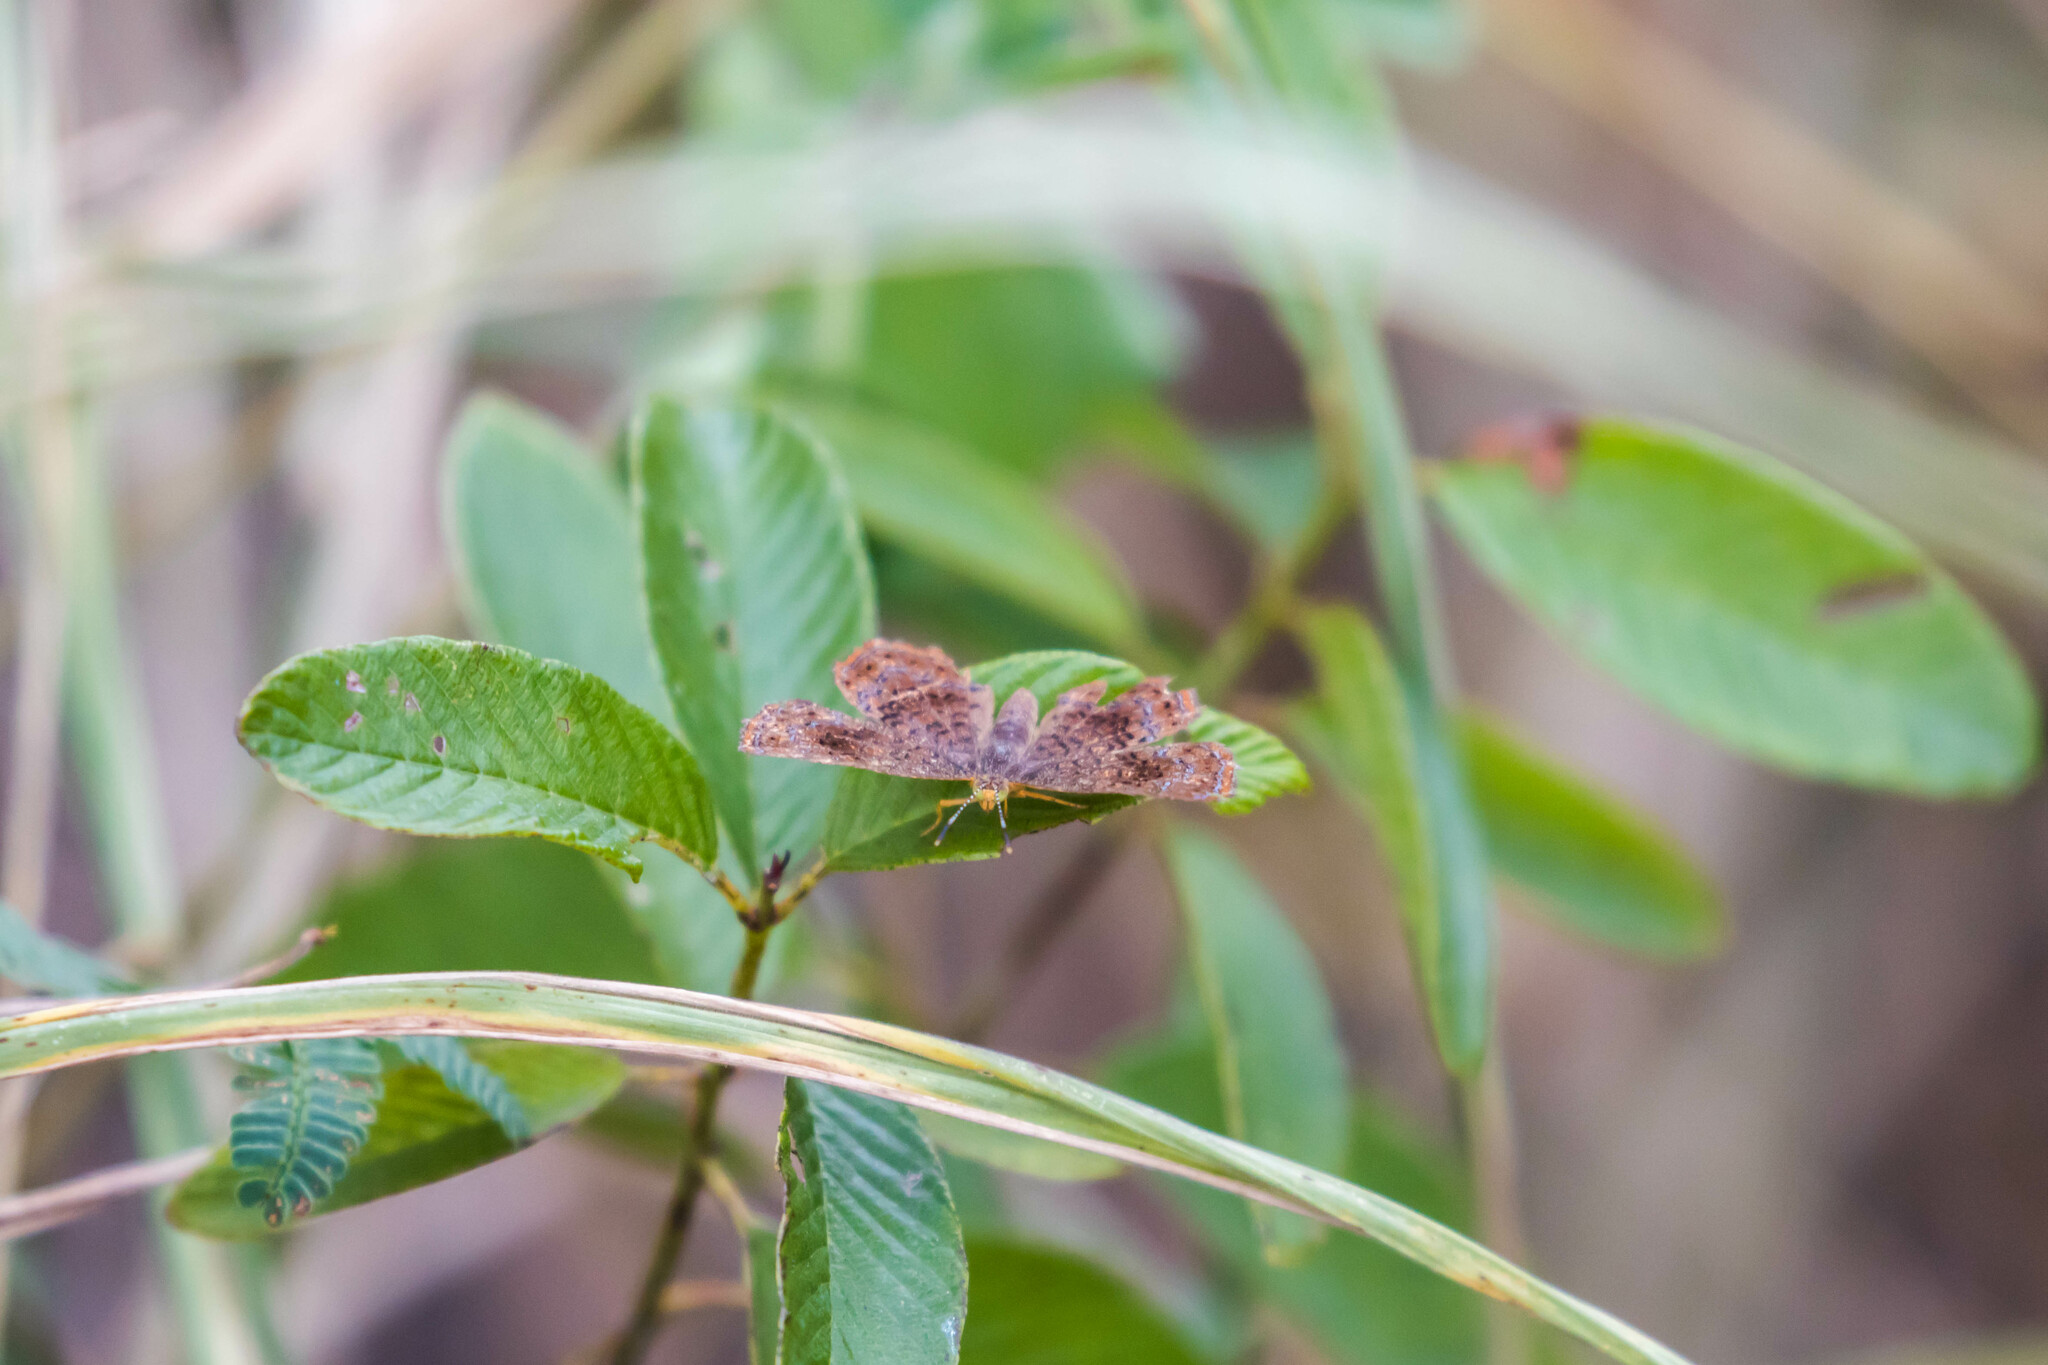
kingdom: Animalia
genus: Calephelis
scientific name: Calephelis perditalis
